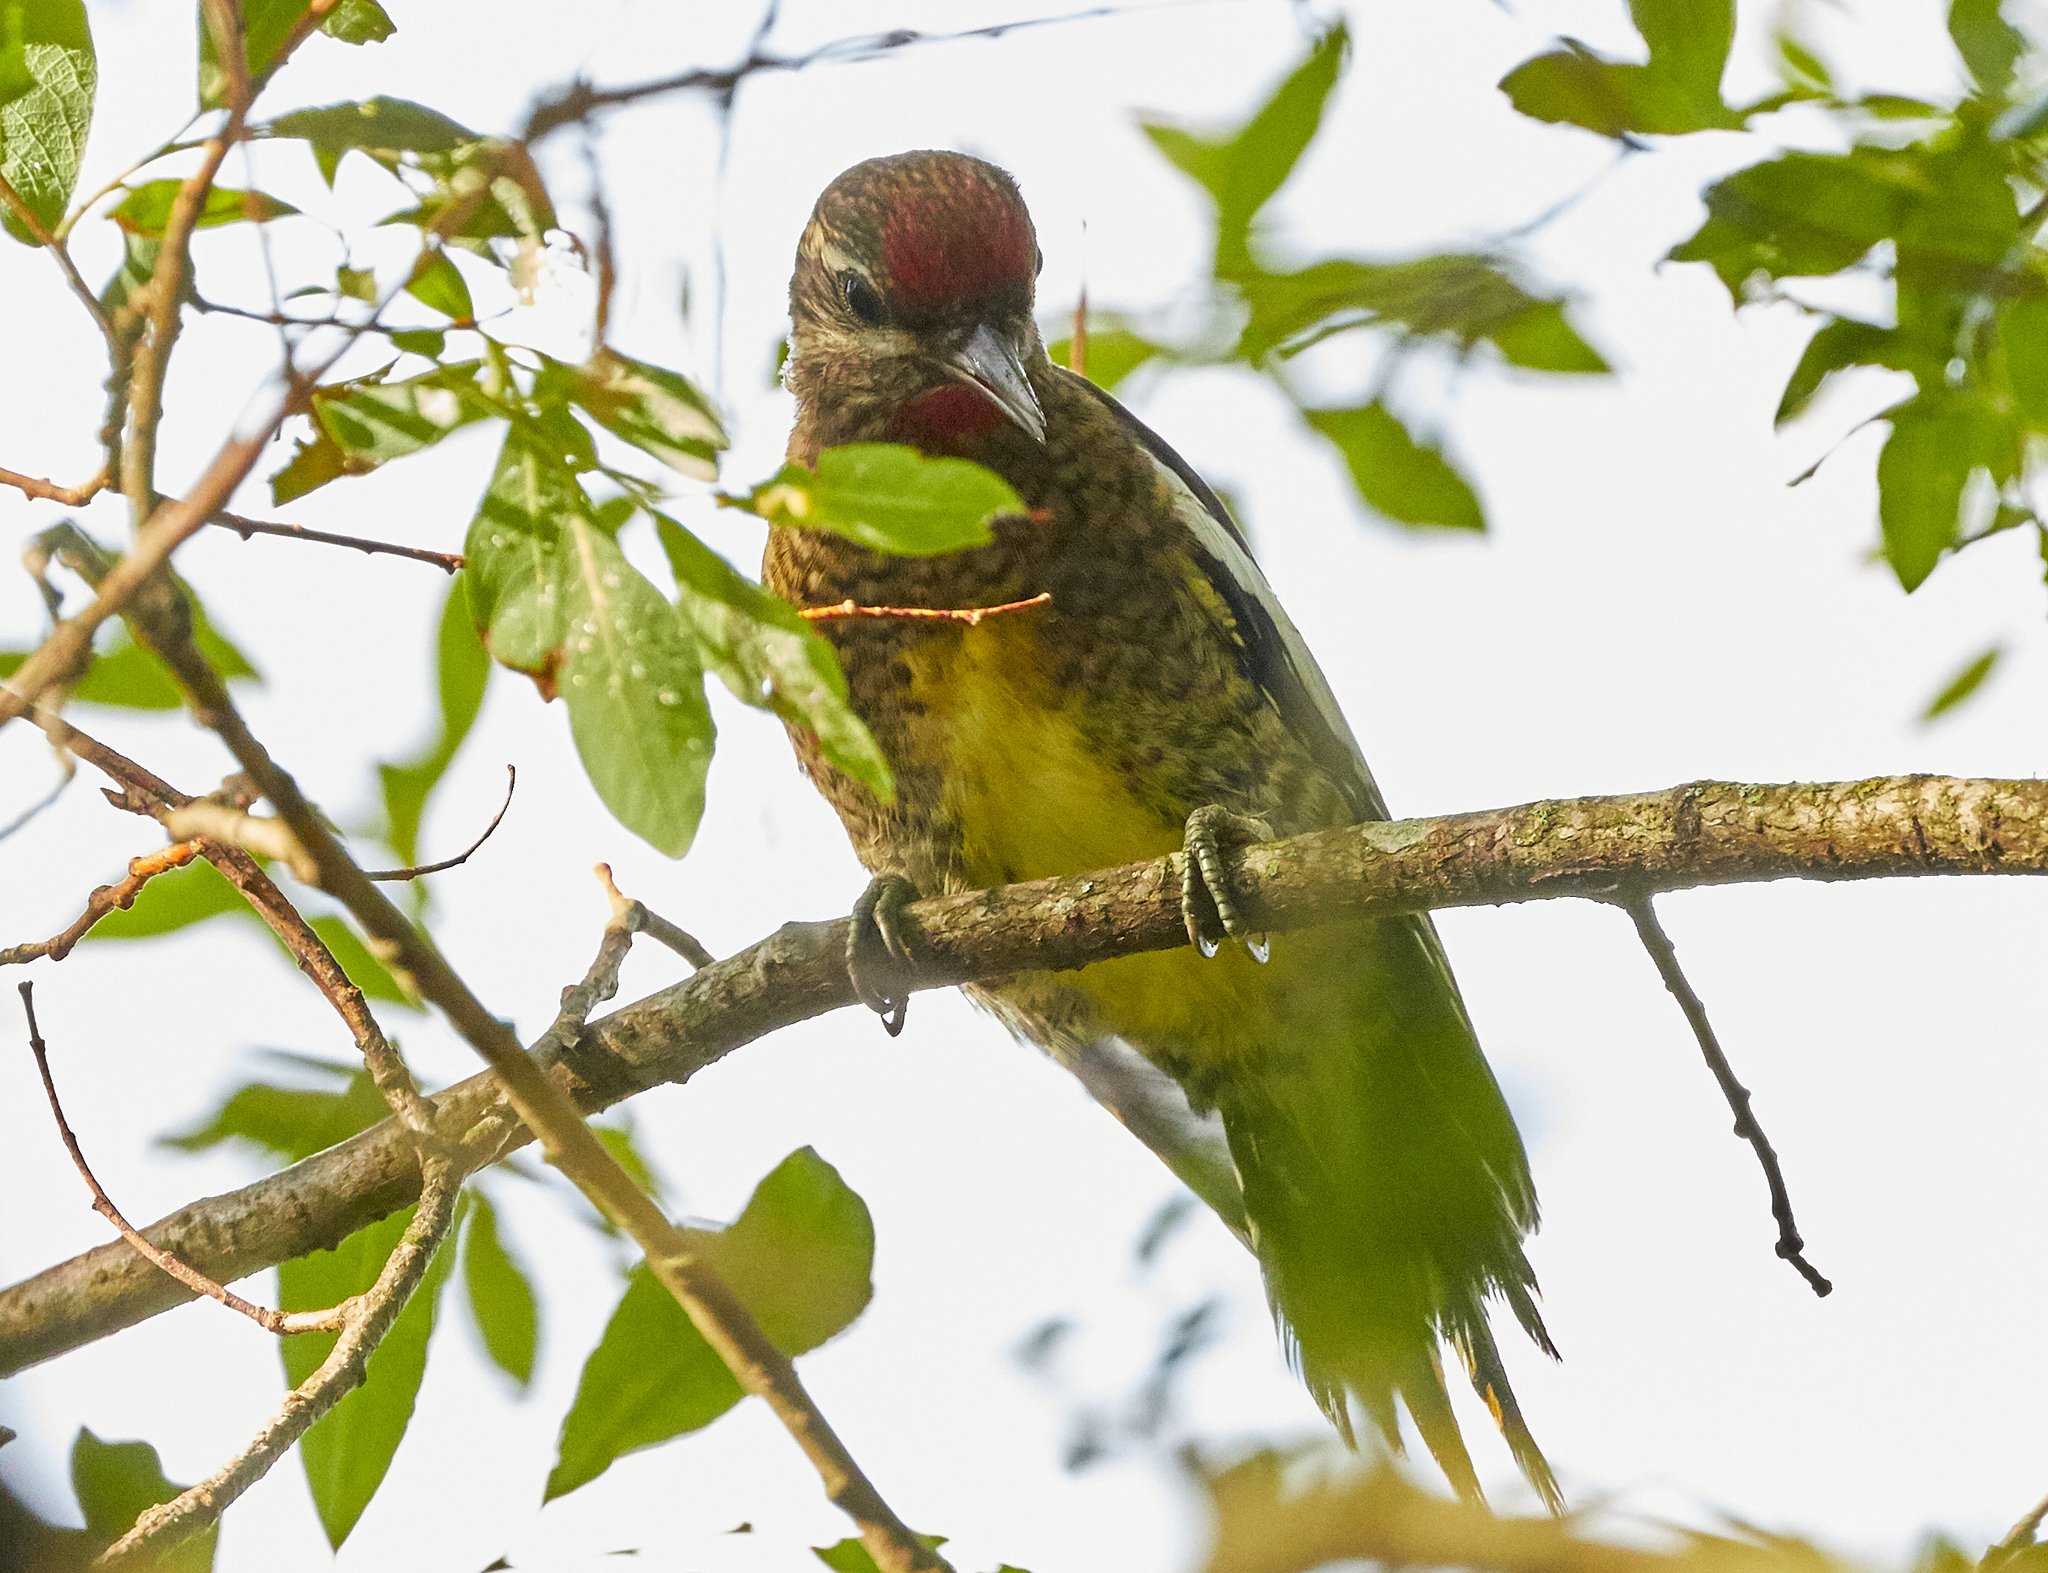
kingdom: Animalia
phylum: Chordata
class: Aves
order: Piciformes
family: Picidae
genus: Sphyrapicus
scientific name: Sphyrapicus varius
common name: Yellow-bellied sapsucker
